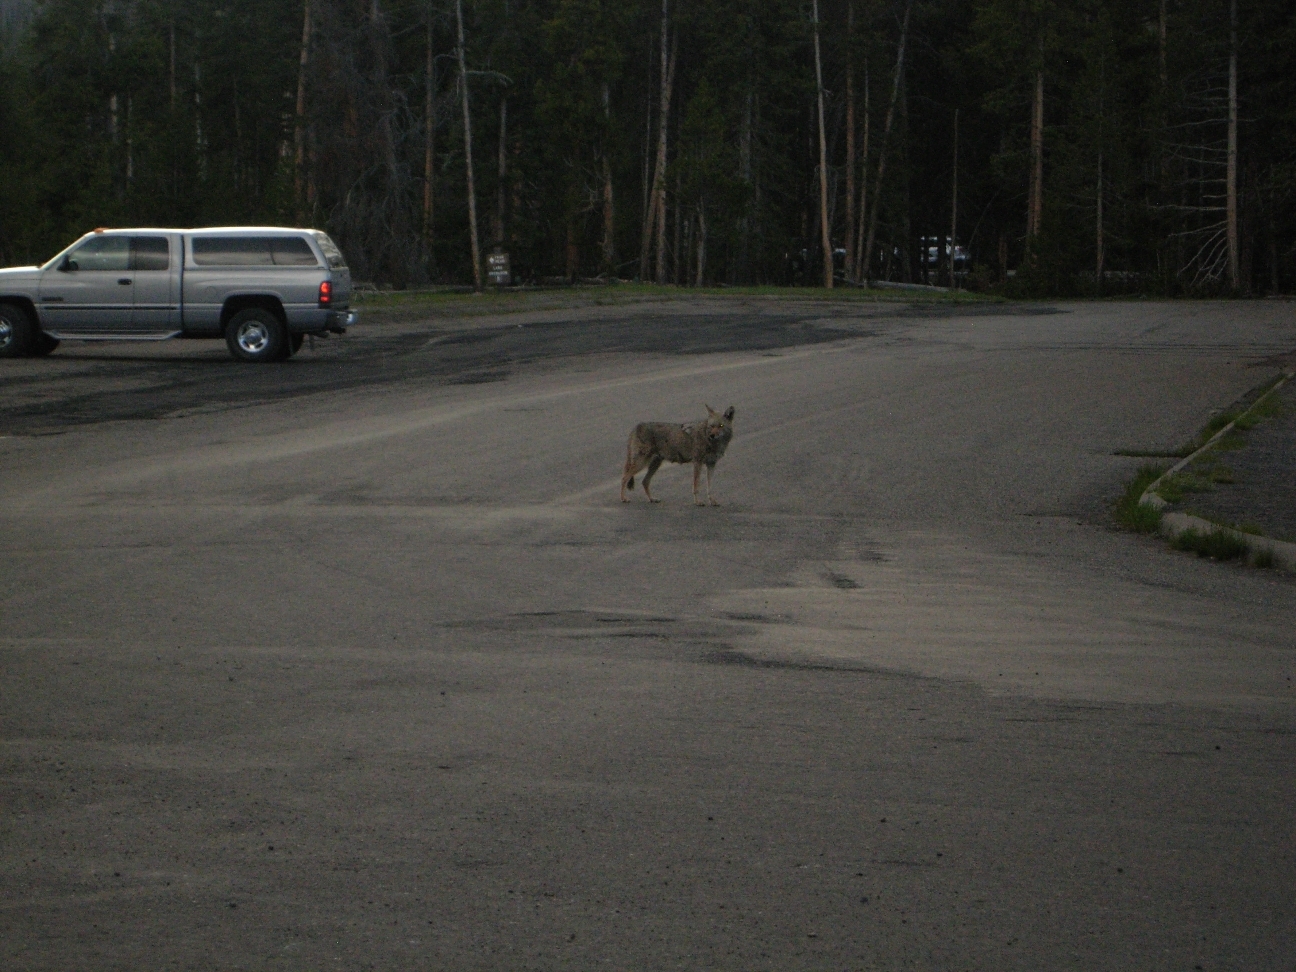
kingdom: Animalia
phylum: Chordata
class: Mammalia
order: Carnivora
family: Canidae
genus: Canis
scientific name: Canis latrans
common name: Coyote
